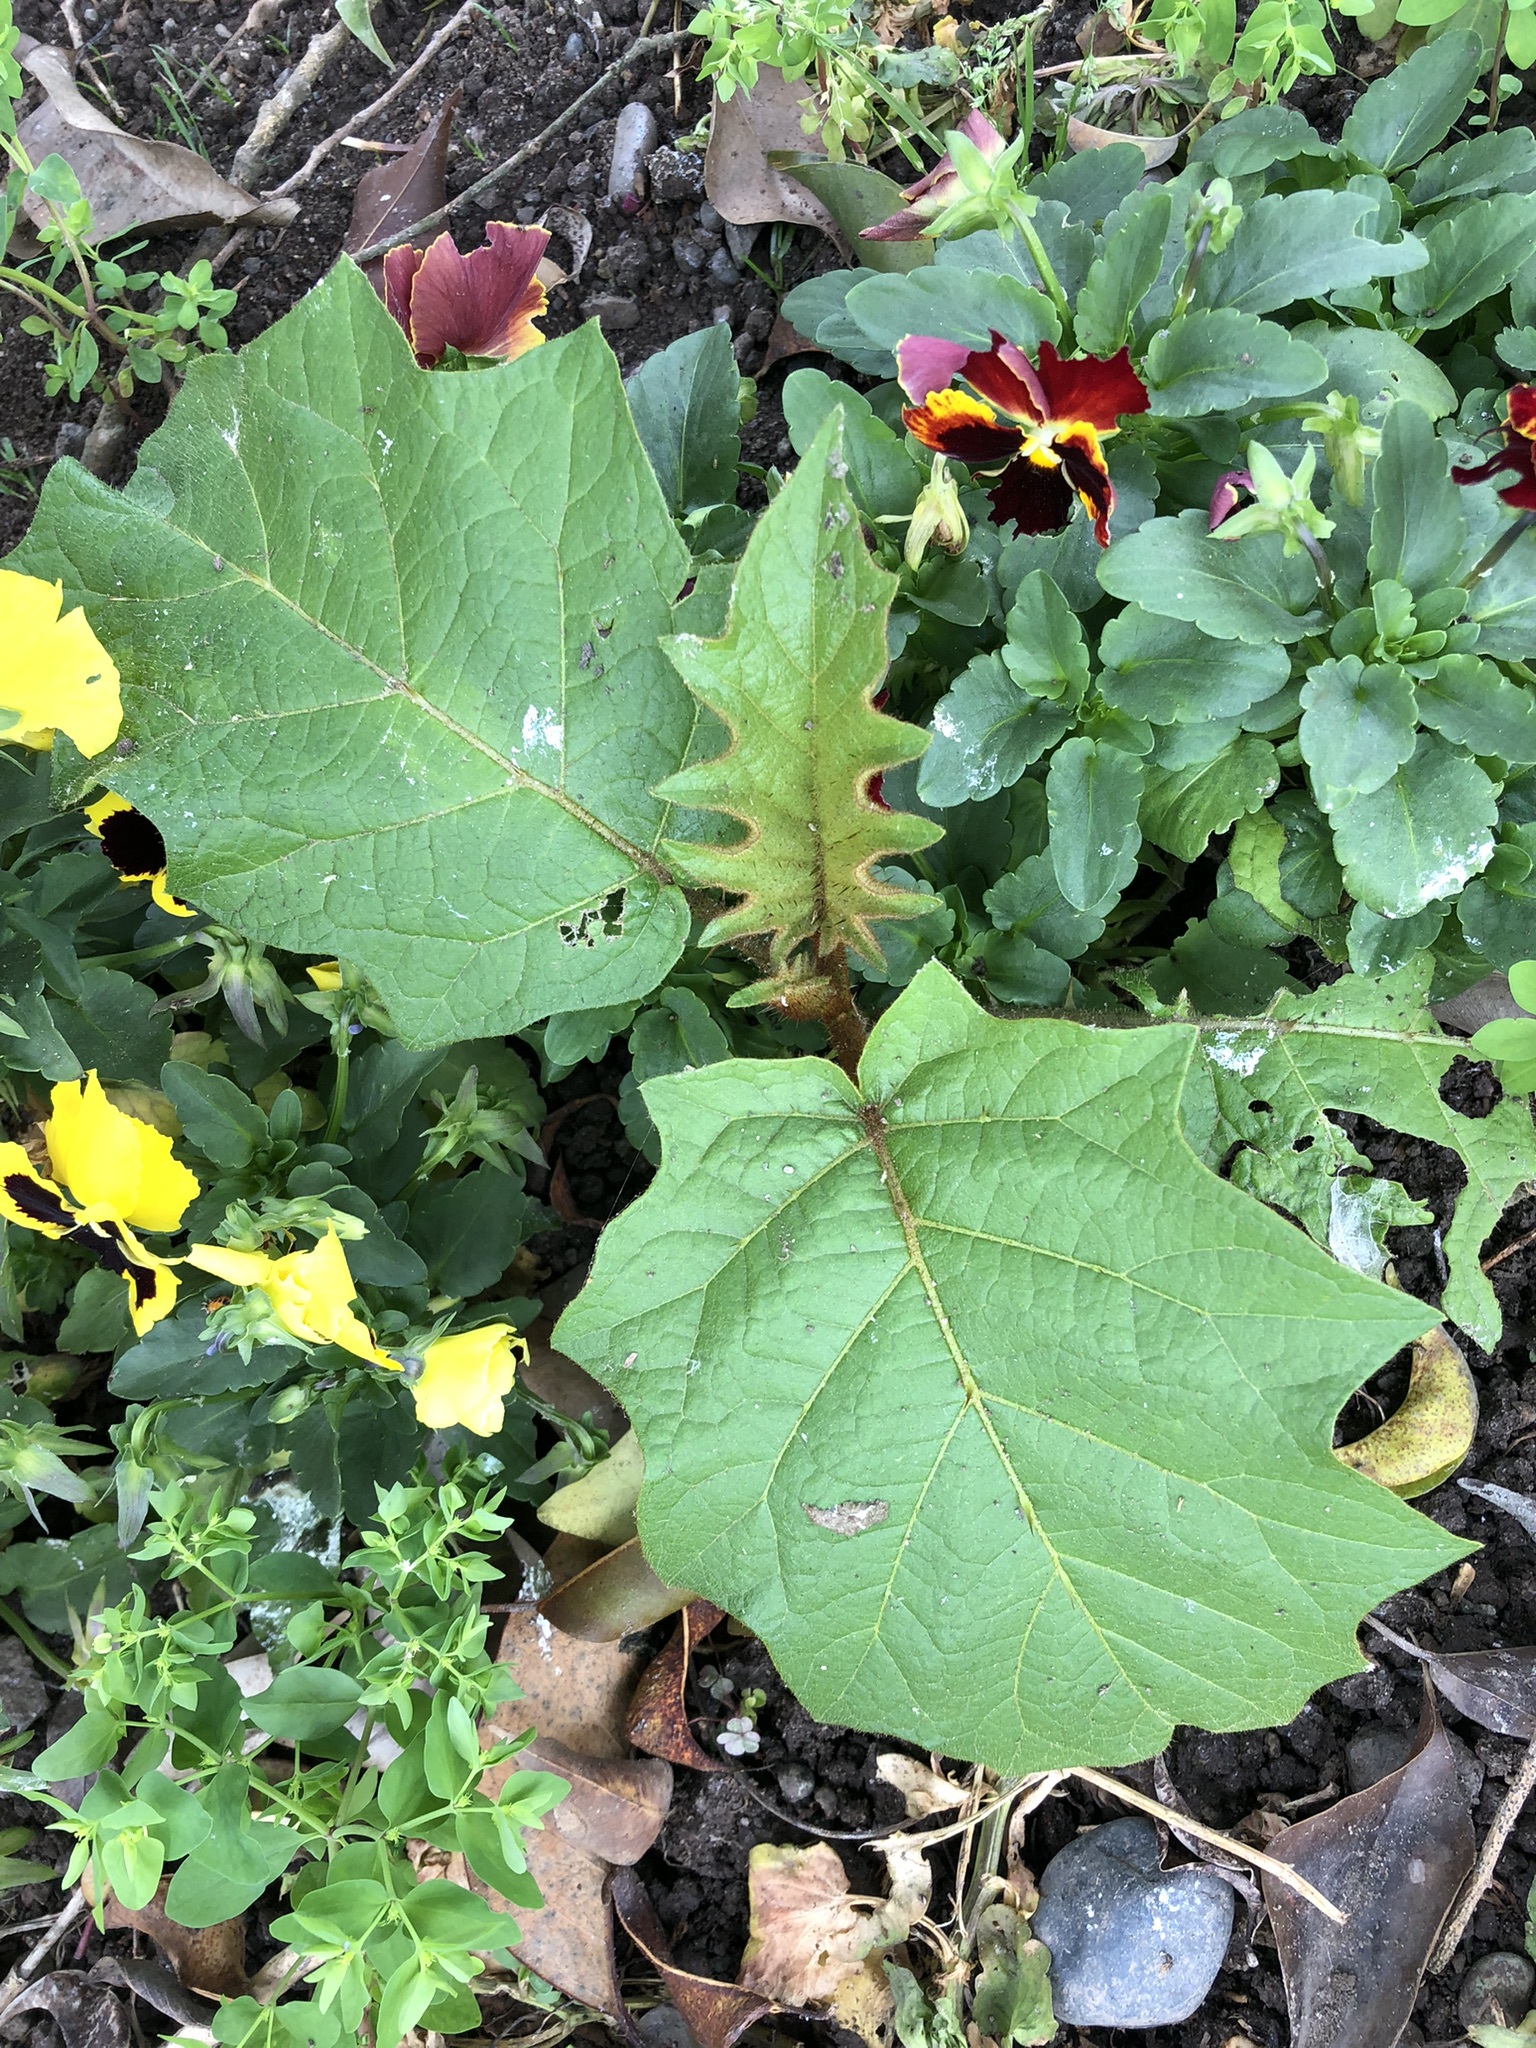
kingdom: Plantae
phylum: Tracheophyta
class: Magnoliopsida
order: Solanales
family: Solanaceae
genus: Solanum
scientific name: Solanum chrysotrichum
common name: Nightshade
